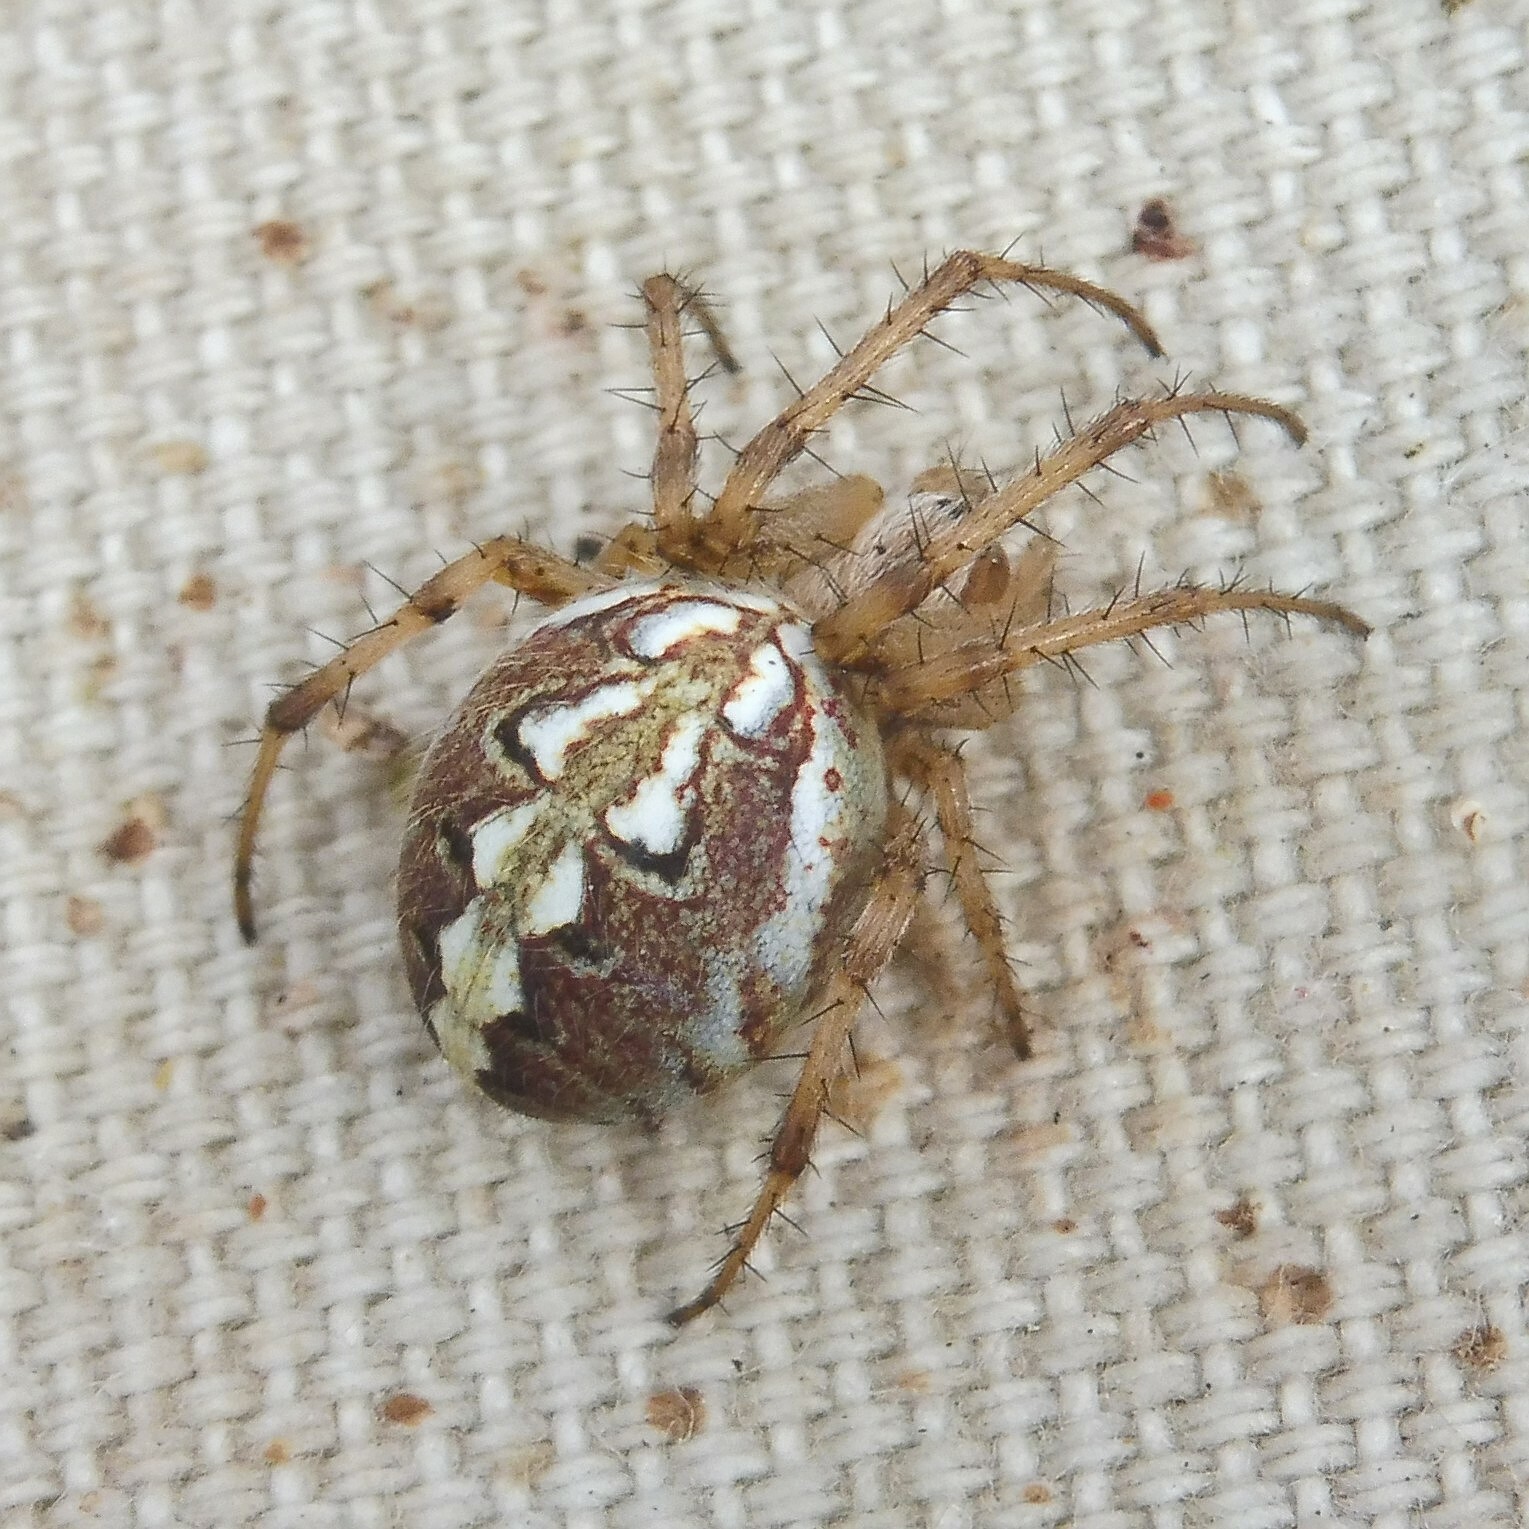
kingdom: Animalia
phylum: Arthropoda
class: Arachnida
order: Araneae
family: Araneidae
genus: Neoscona
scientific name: Neoscona adianta
